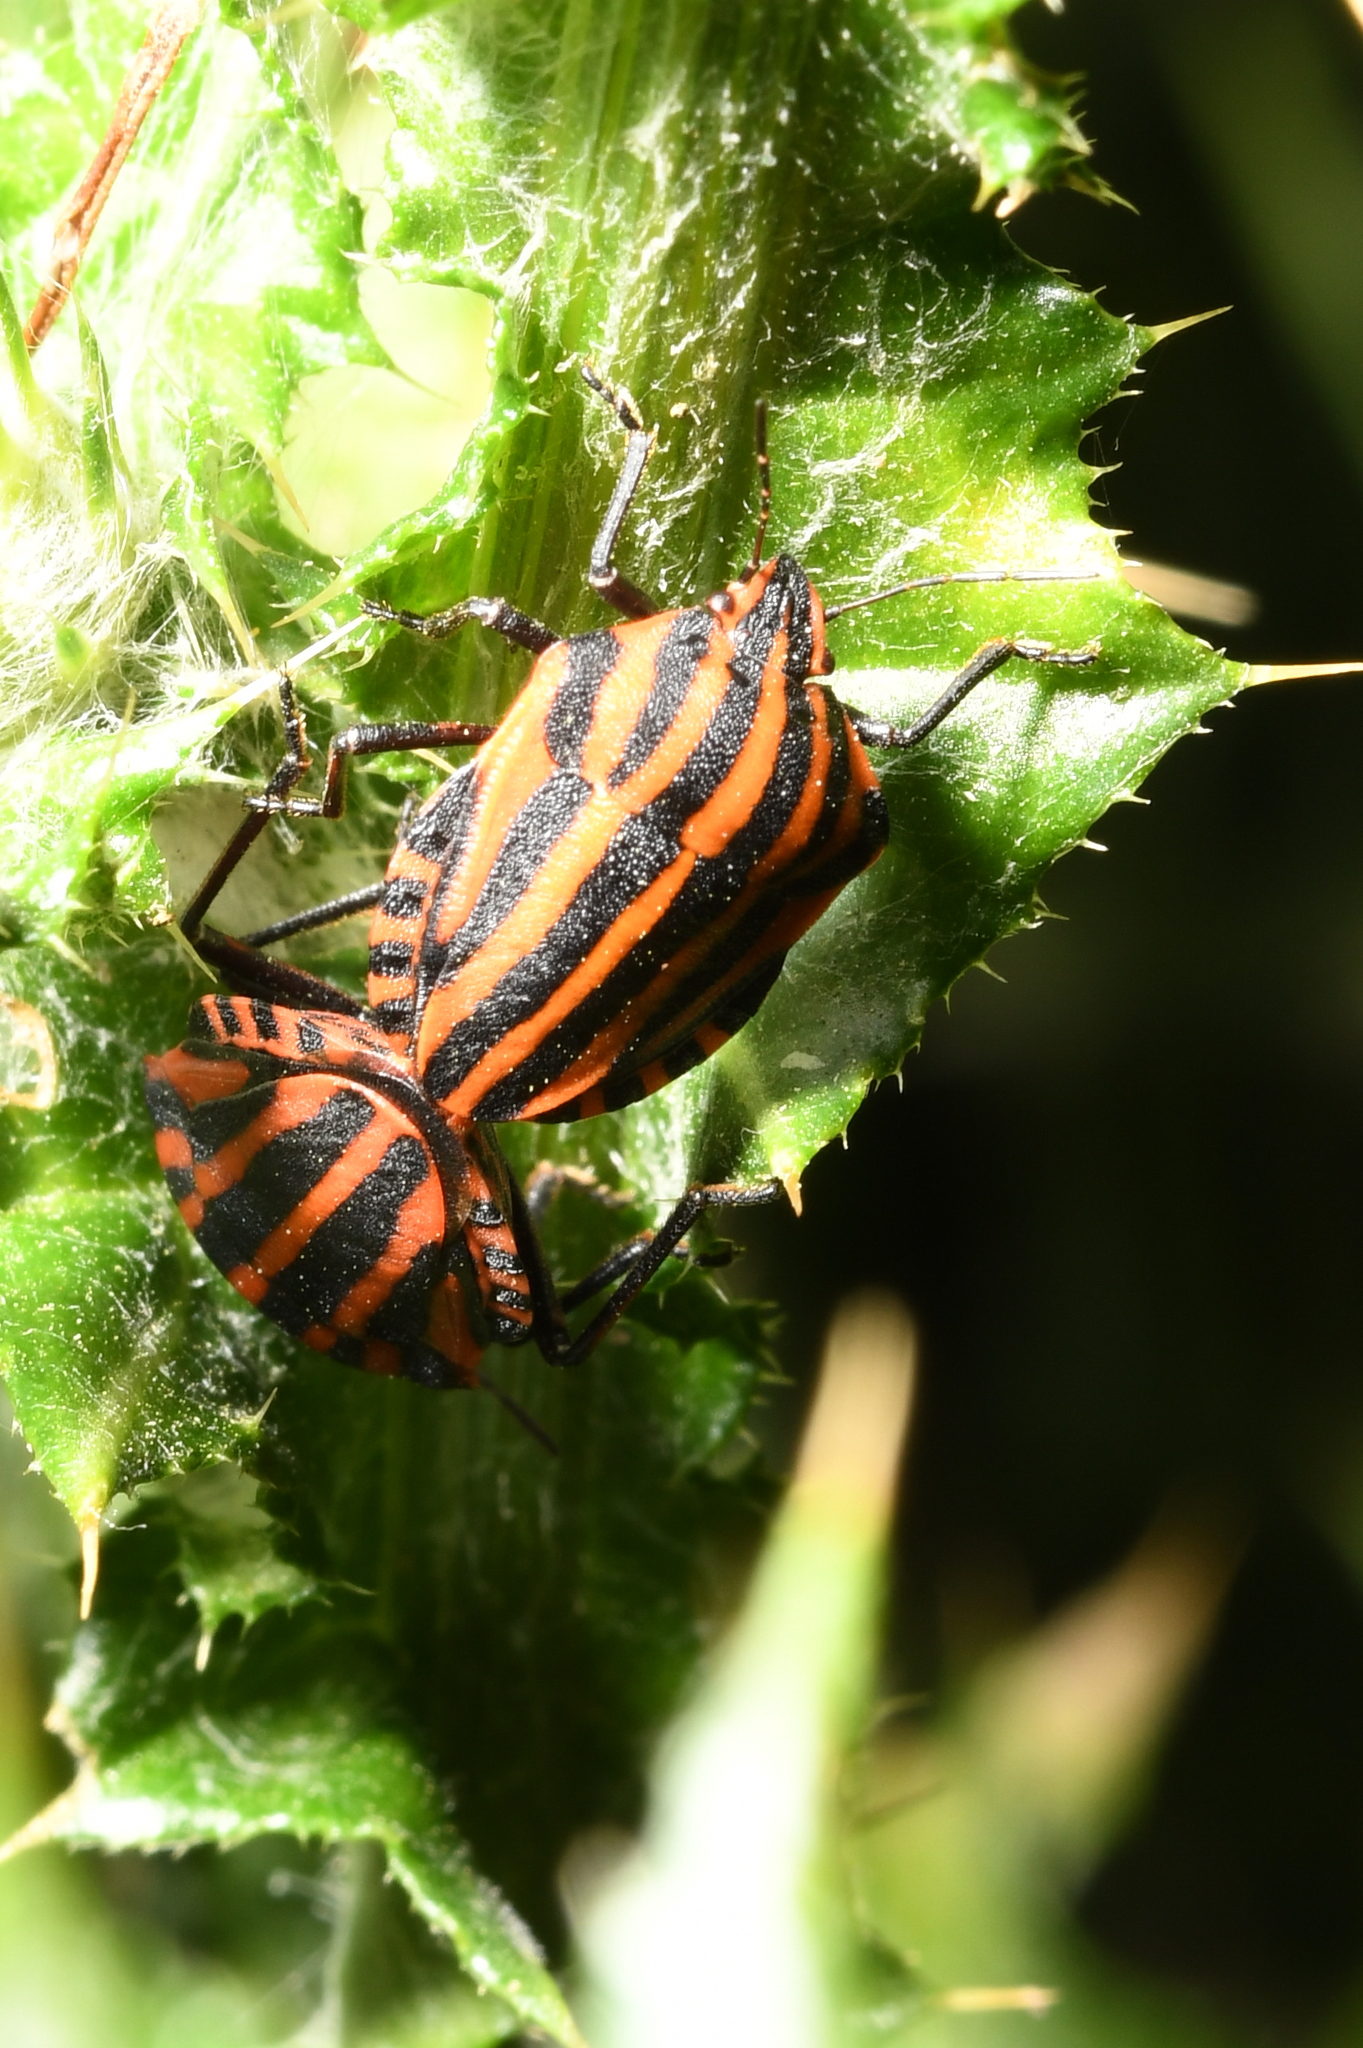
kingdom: Animalia
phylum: Arthropoda
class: Insecta
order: Hemiptera
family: Pentatomidae
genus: Graphosoma
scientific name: Graphosoma italicum
